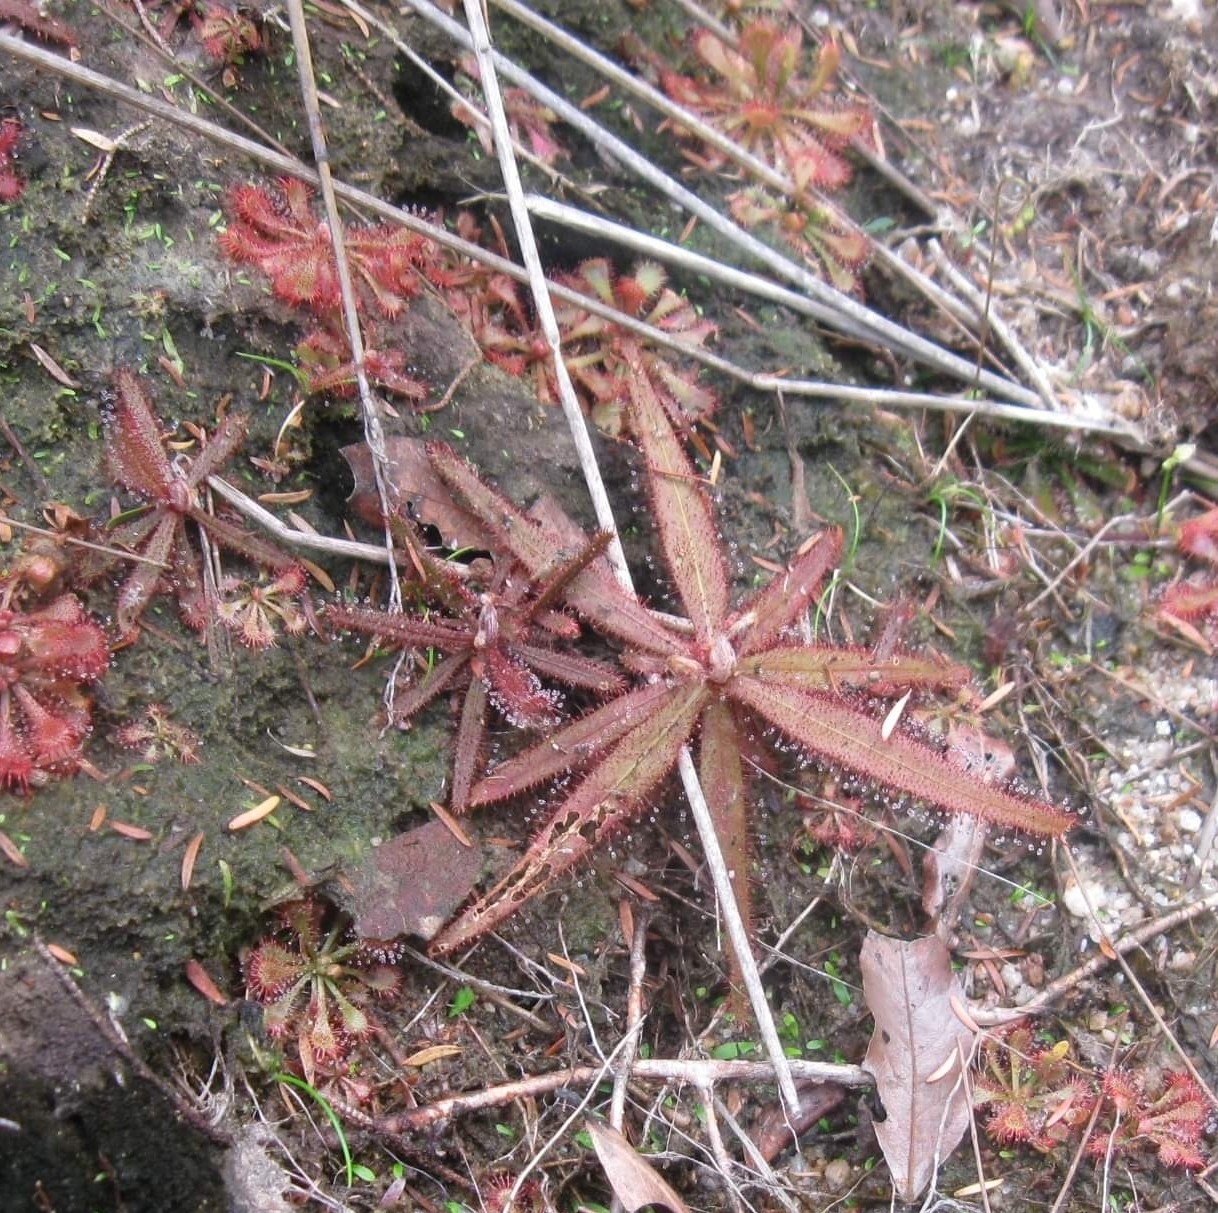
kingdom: Plantae
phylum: Tracheophyta
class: Magnoliopsida
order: Caryophyllales
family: Droseraceae
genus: Drosera
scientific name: Drosera adelae
